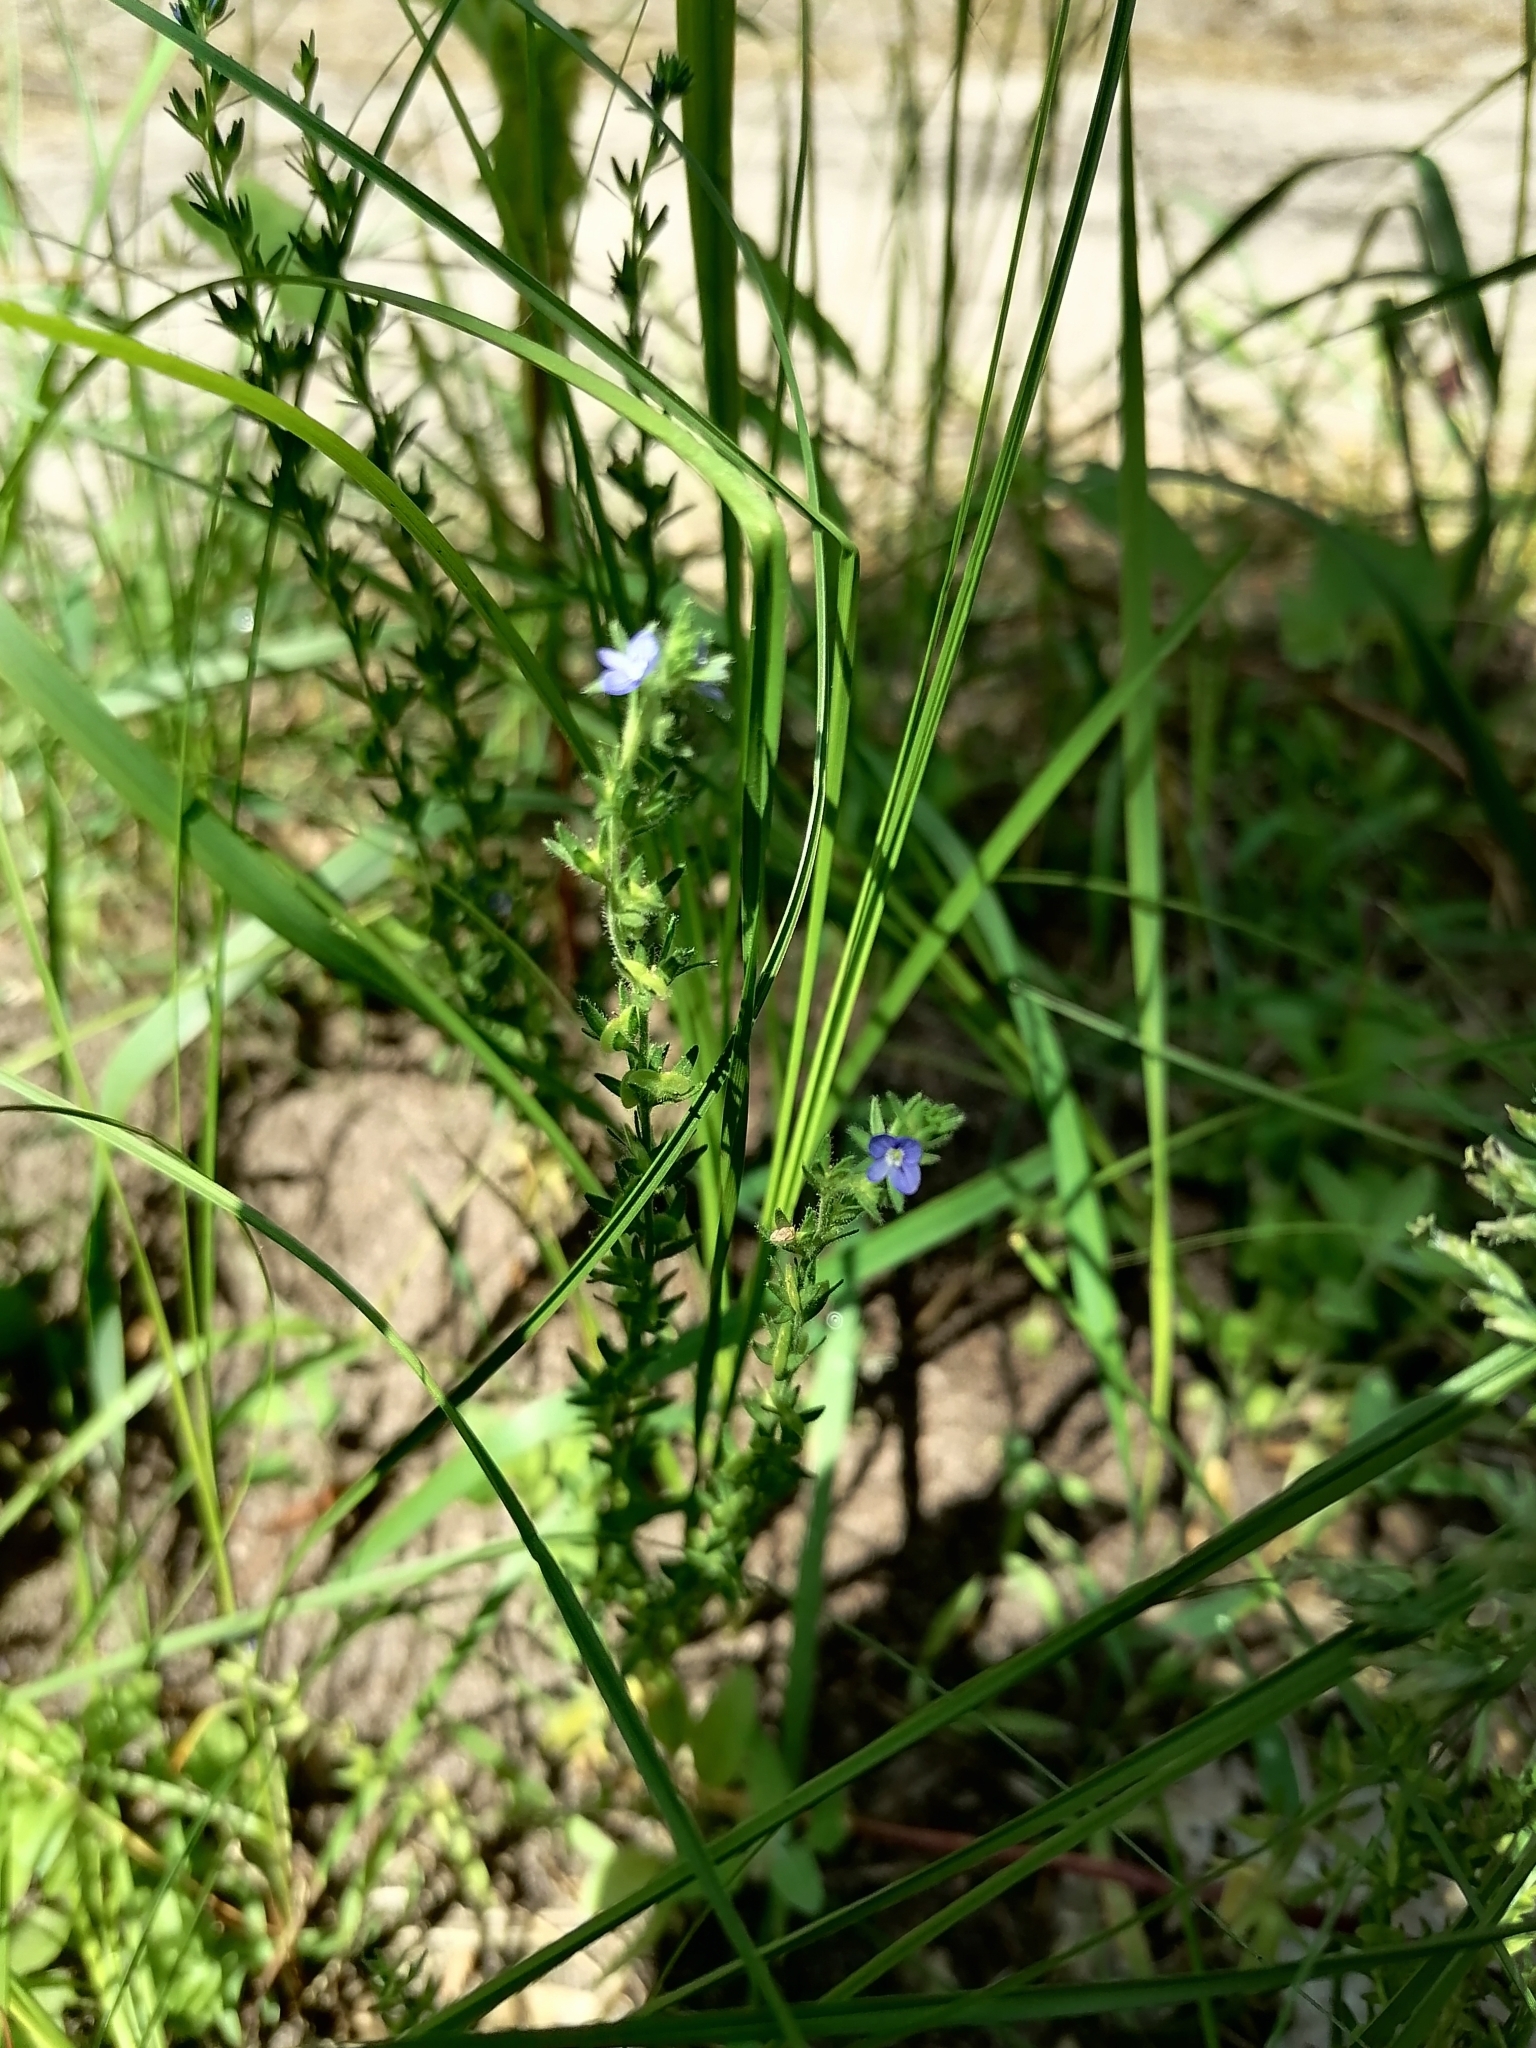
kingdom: Plantae
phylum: Tracheophyta
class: Magnoliopsida
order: Lamiales
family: Plantaginaceae
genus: Veronica
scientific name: Veronica arvensis
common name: Corn speedwell
